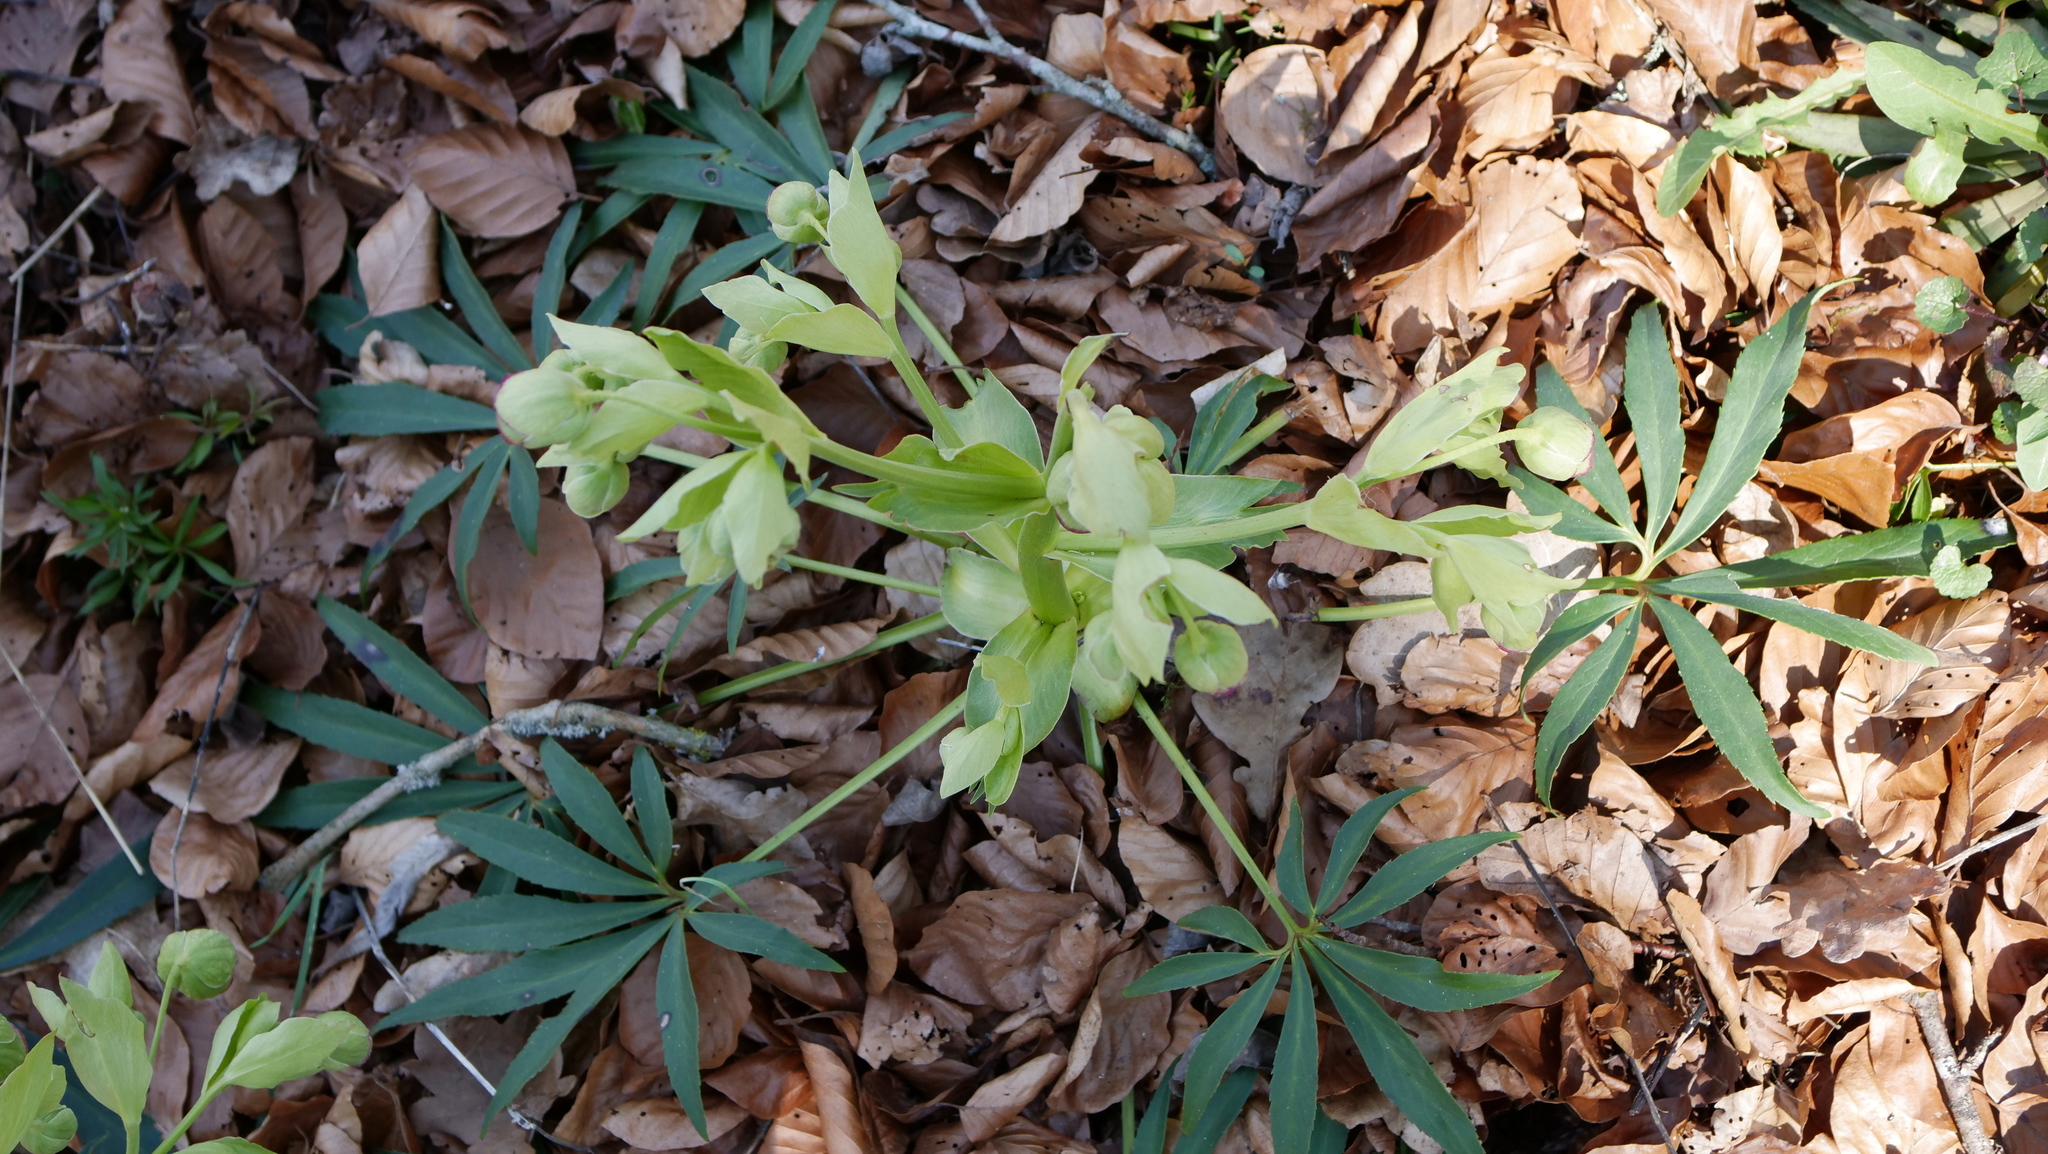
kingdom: Plantae
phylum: Tracheophyta
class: Magnoliopsida
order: Ranunculales
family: Ranunculaceae
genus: Helleborus
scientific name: Helleborus foetidus
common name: Stinking hellebore
